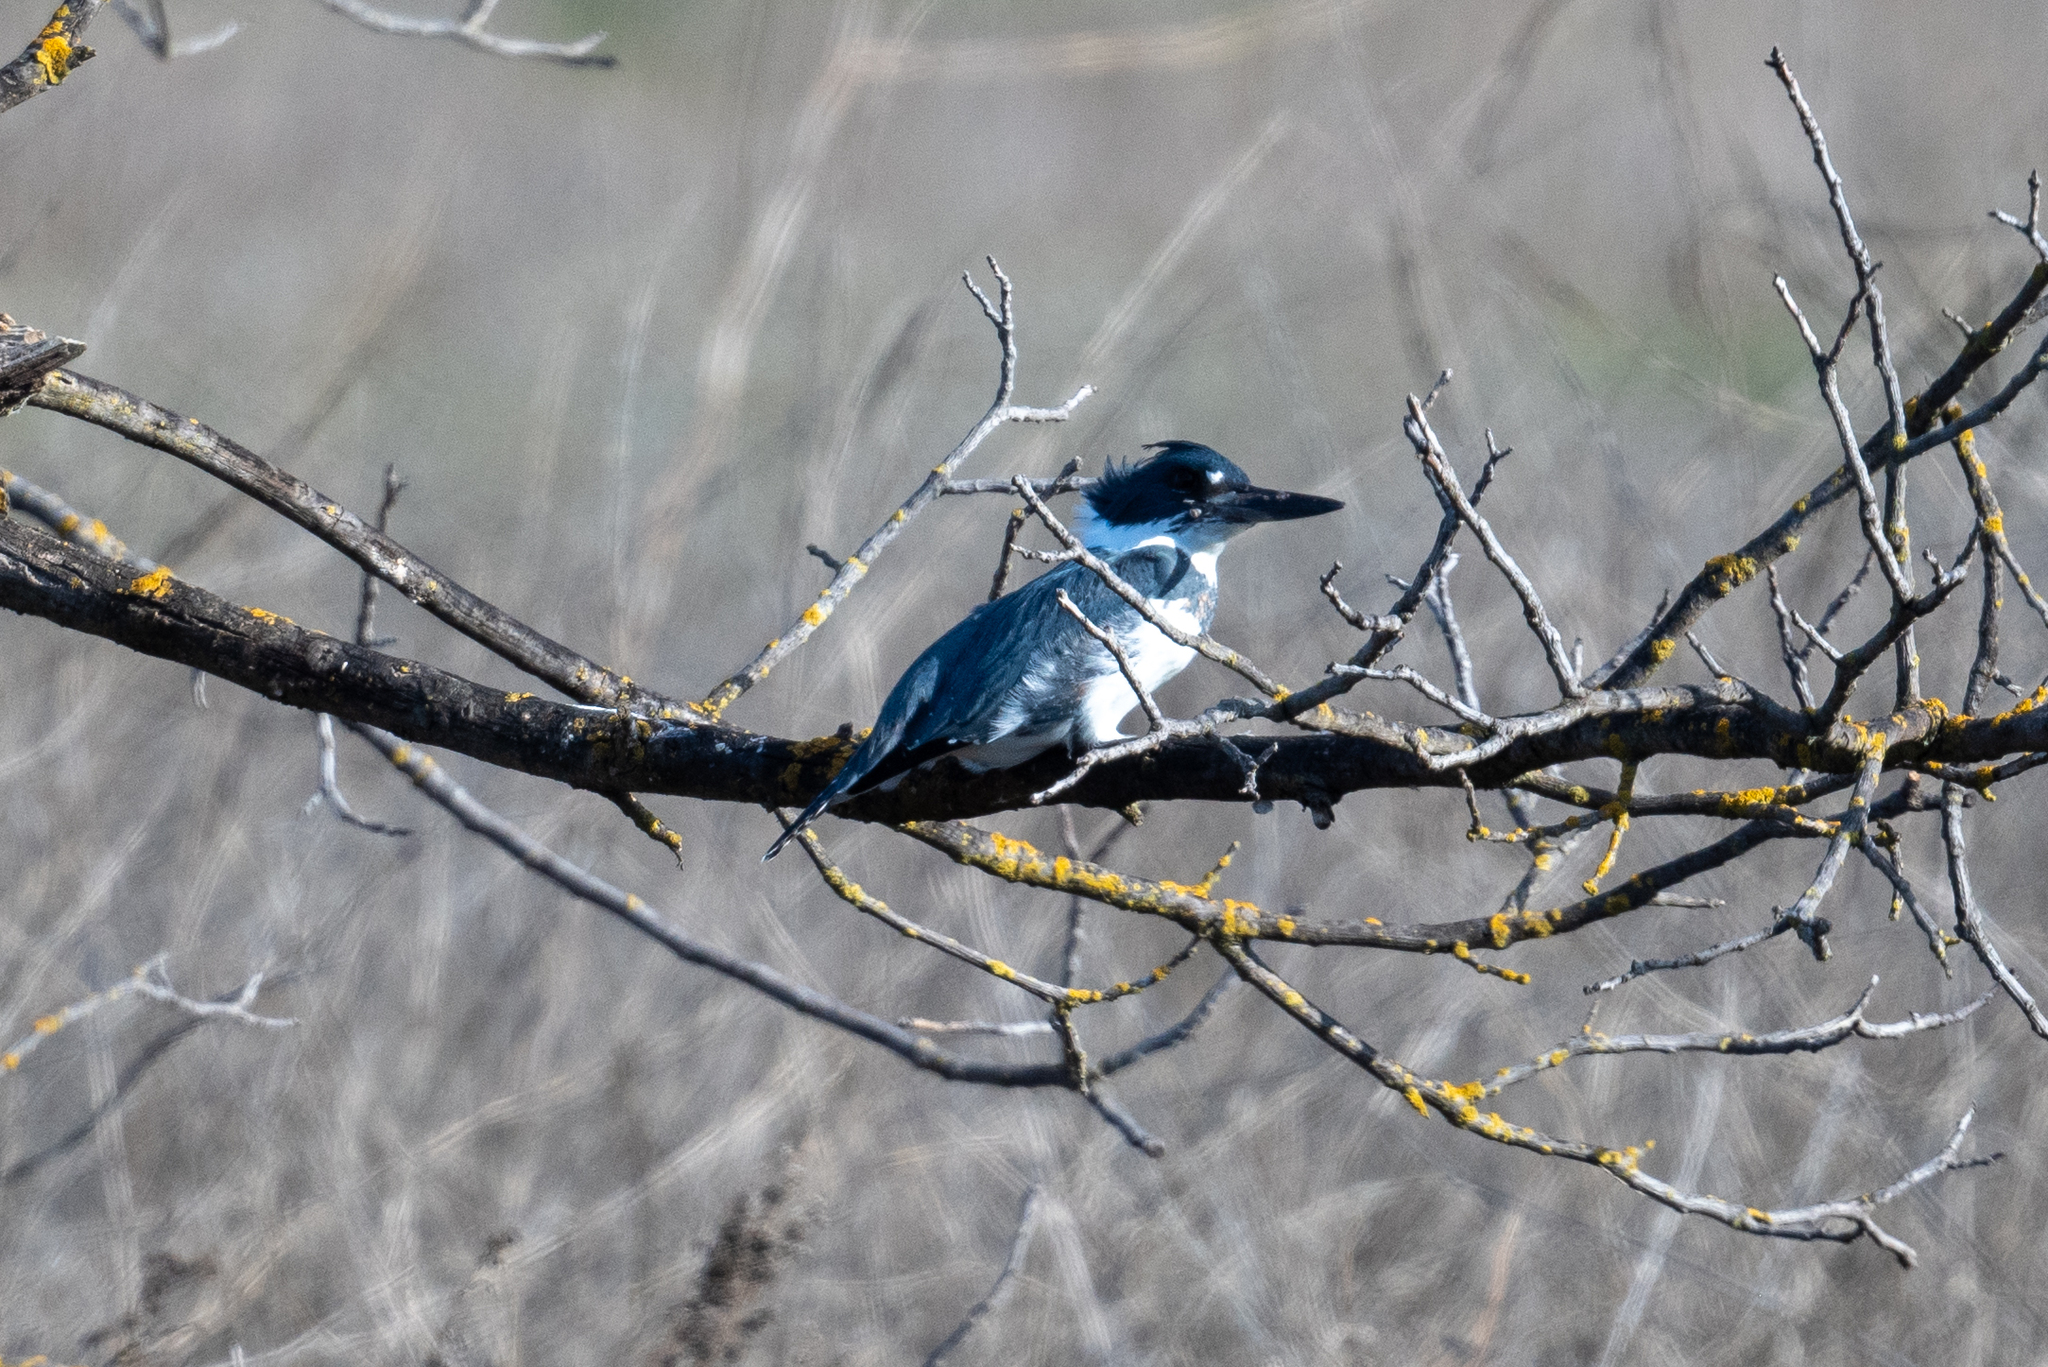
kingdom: Animalia
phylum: Chordata
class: Aves
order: Coraciiformes
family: Alcedinidae
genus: Megaceryle
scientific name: Megaceryle alcyon
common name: Belted kingfisher
